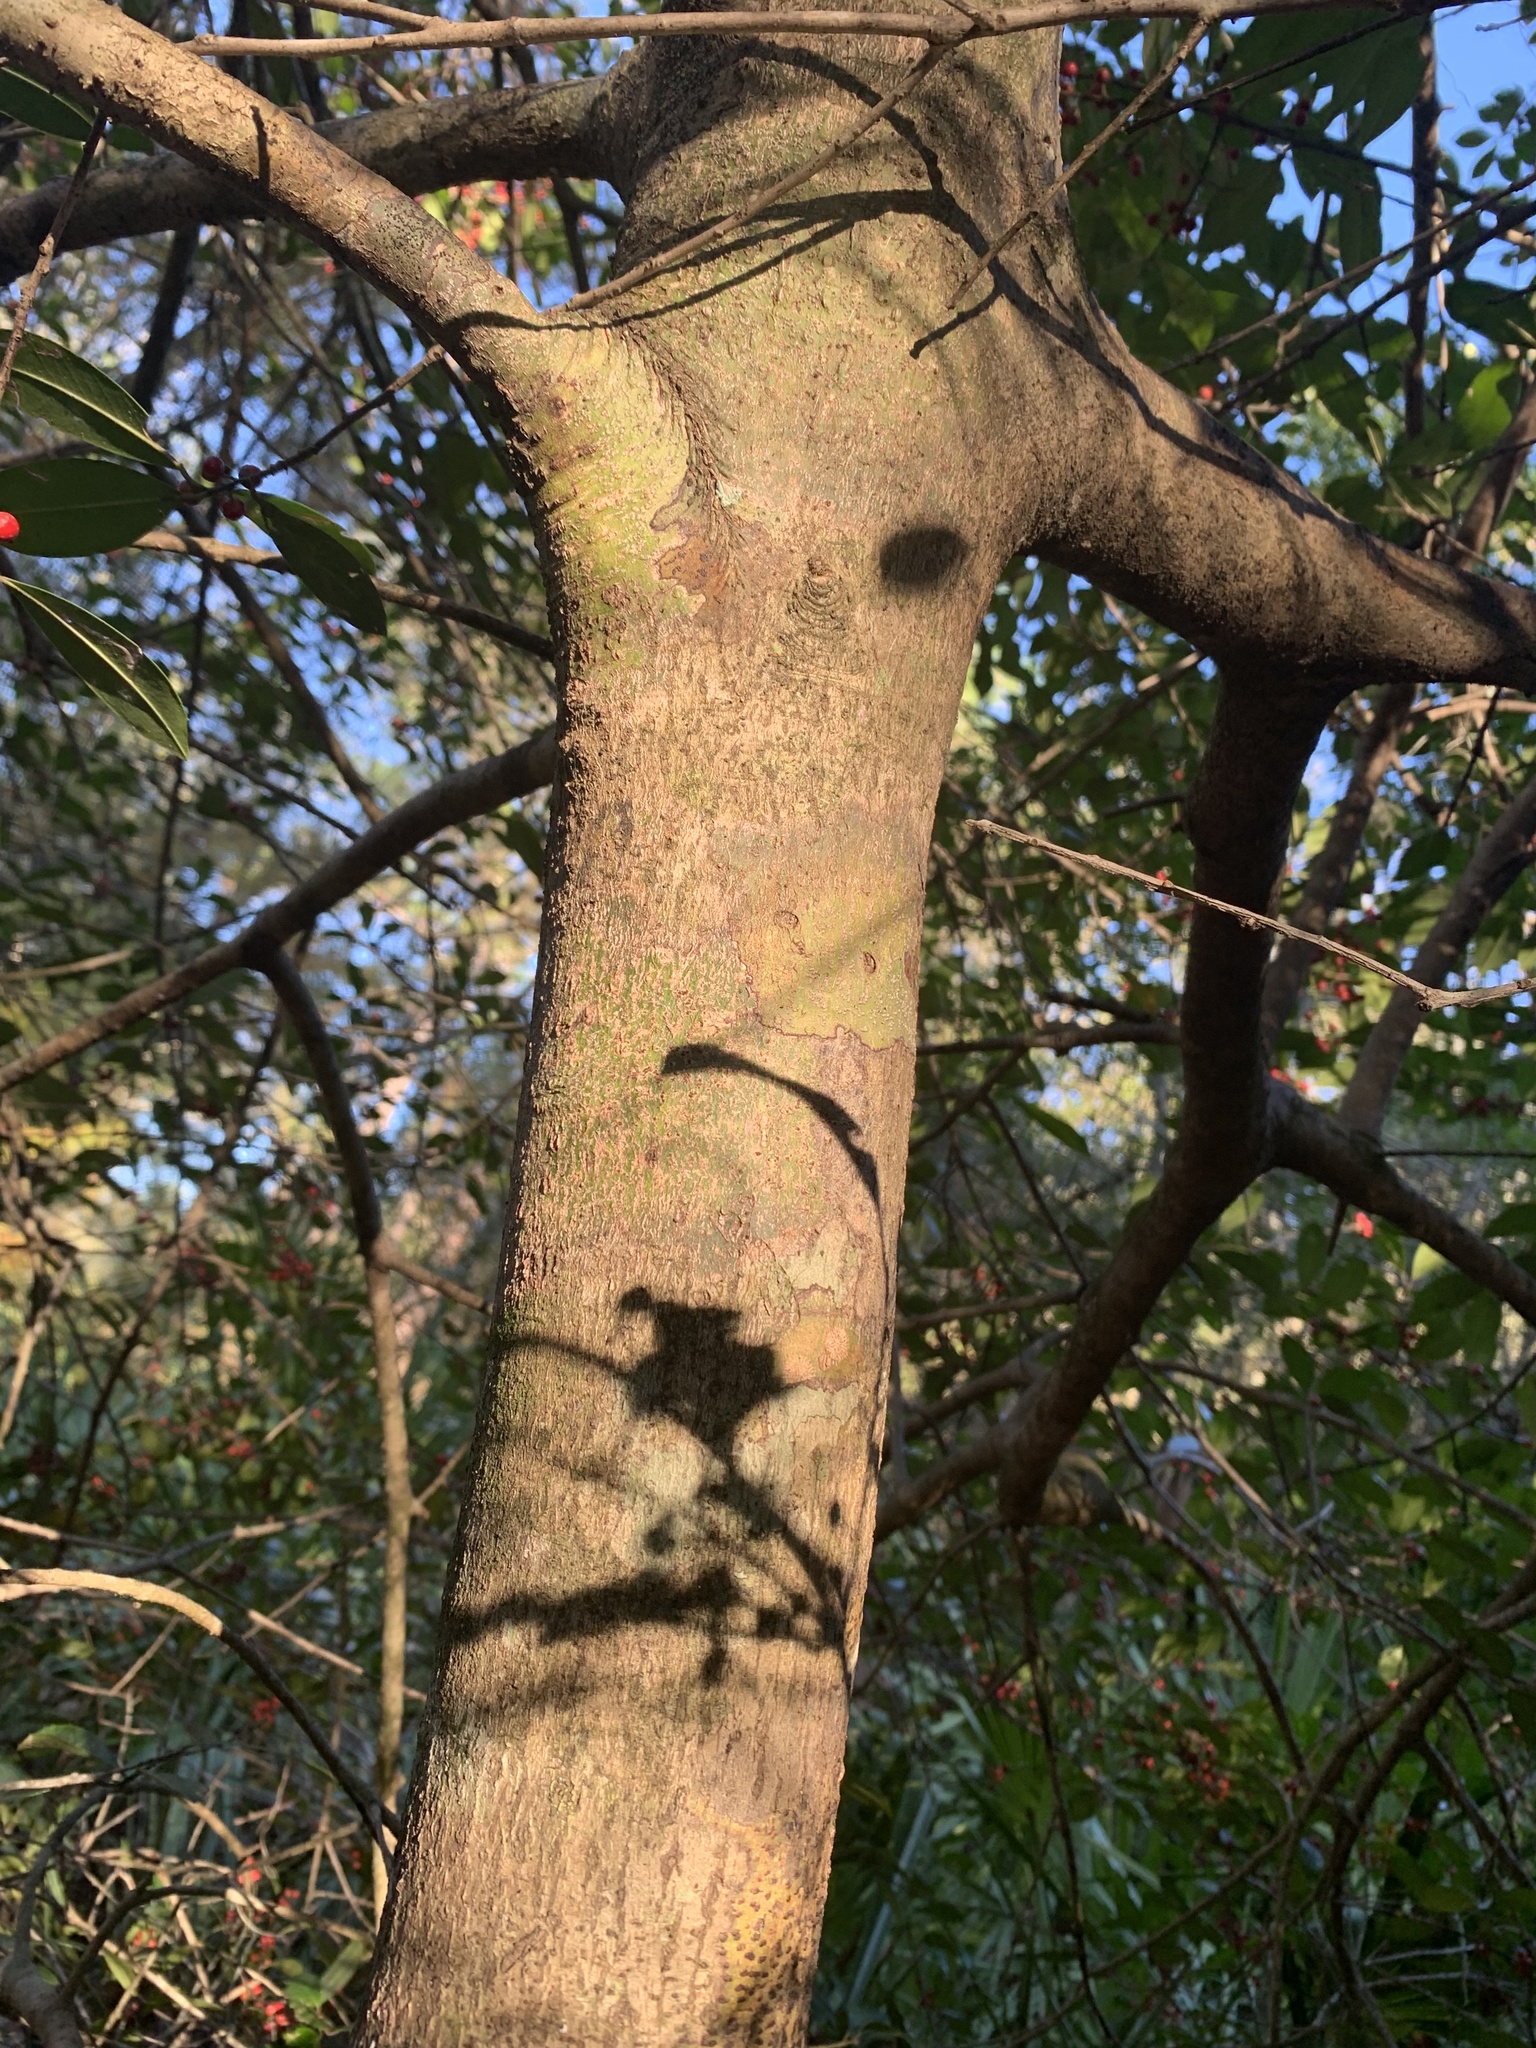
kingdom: Plantae
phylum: Tracheophyta
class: Magnoliopsida
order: Aquifoliales
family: Aquifoliaceae
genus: Ilex
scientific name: Ilex cassine
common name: Dahoon
